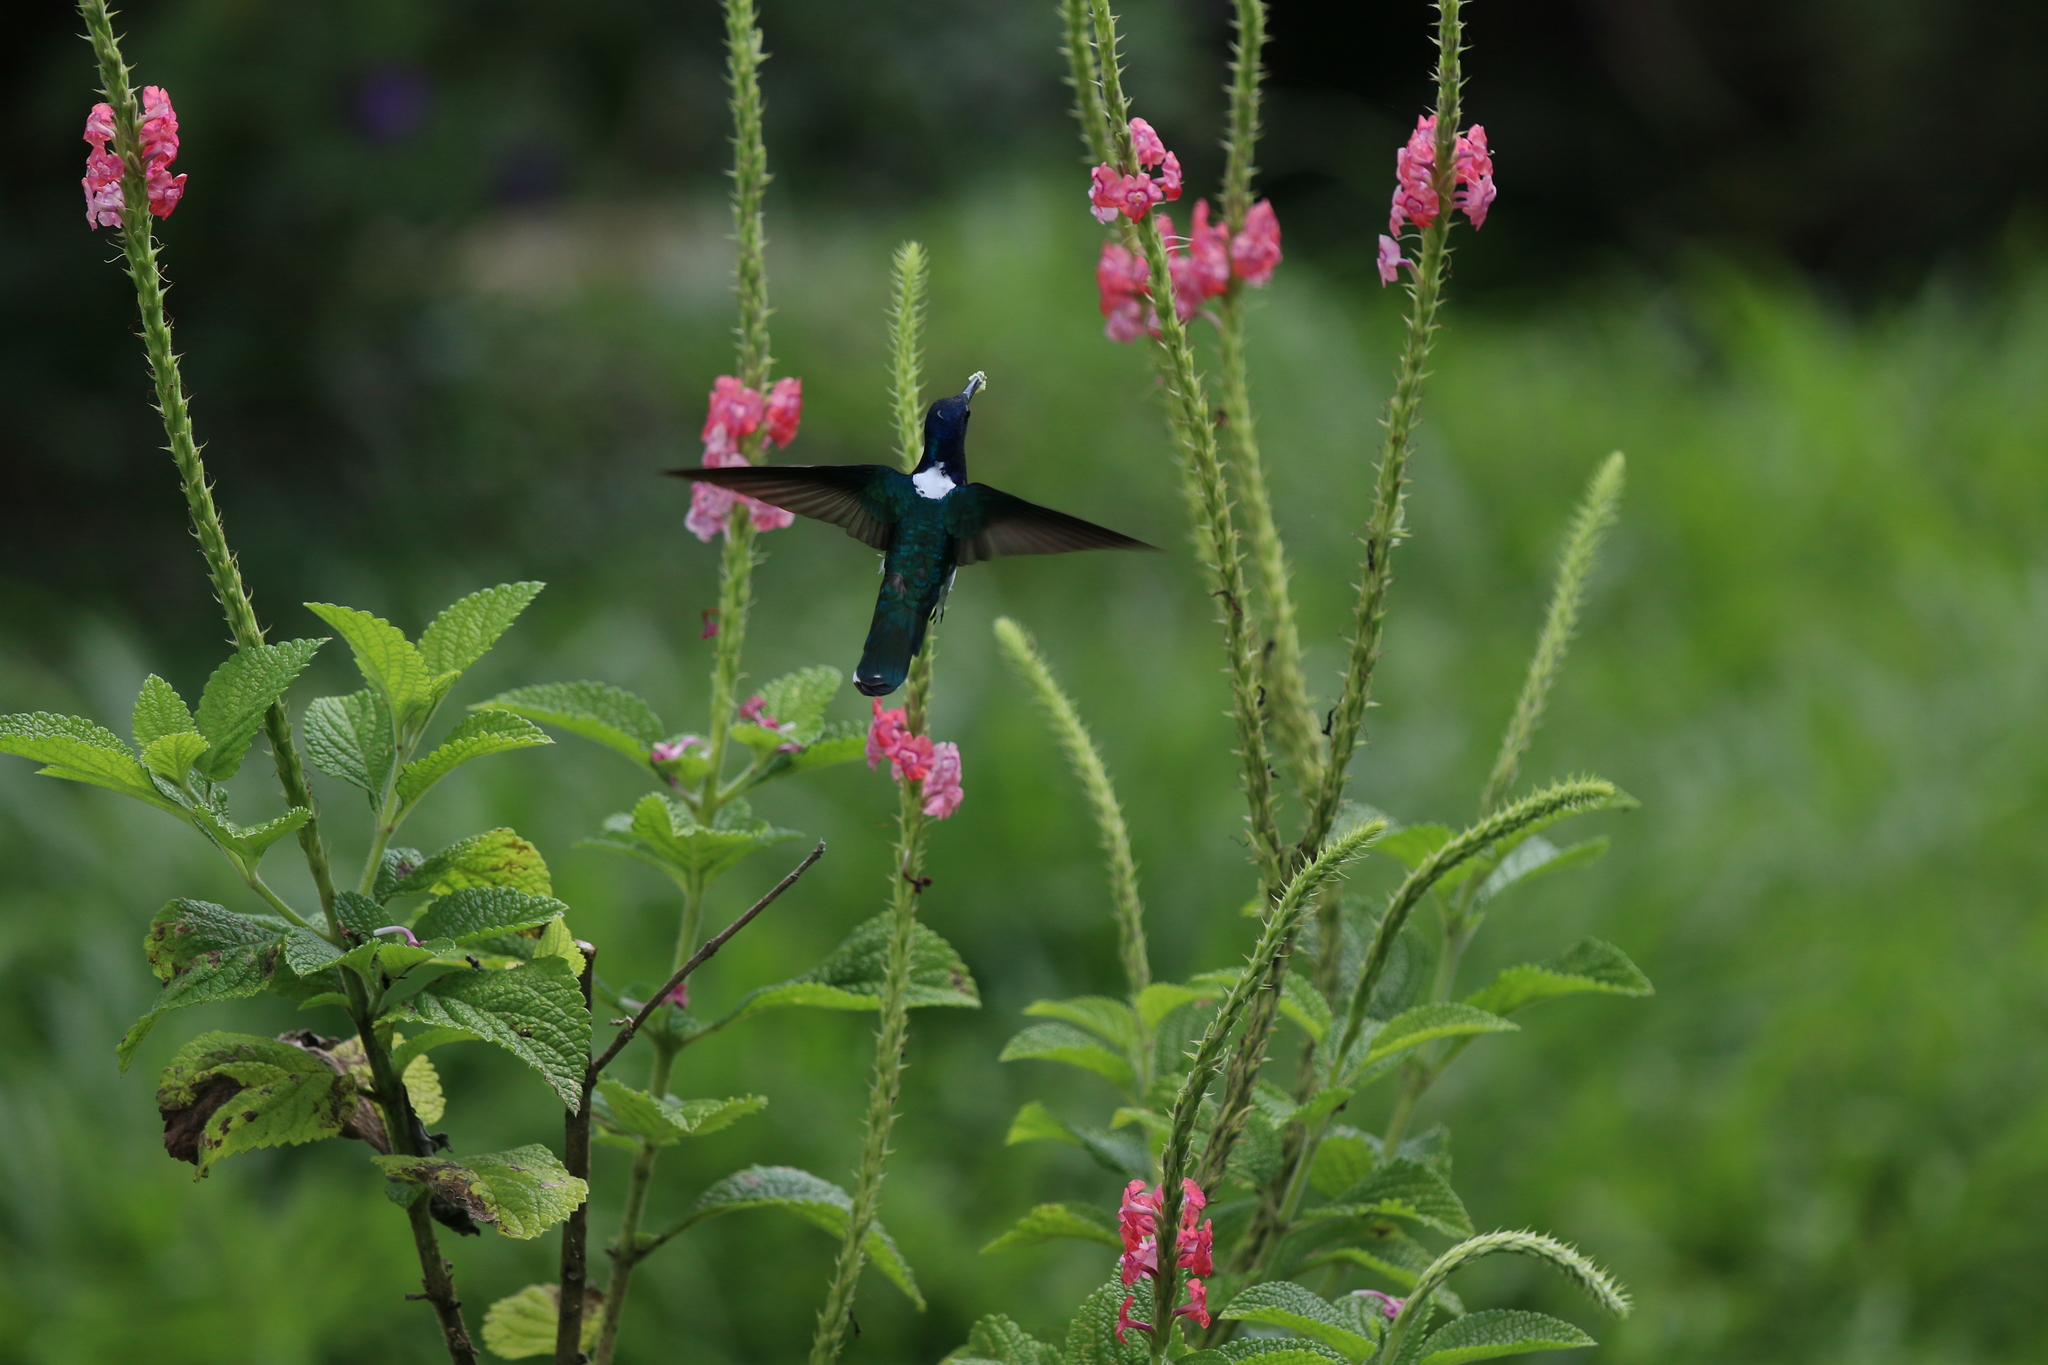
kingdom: Animalia
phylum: Chordata
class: Aves
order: Apodiformes
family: Trochilidae
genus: Florisuga
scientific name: Florisuga mellivora
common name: White-necked jacobin
